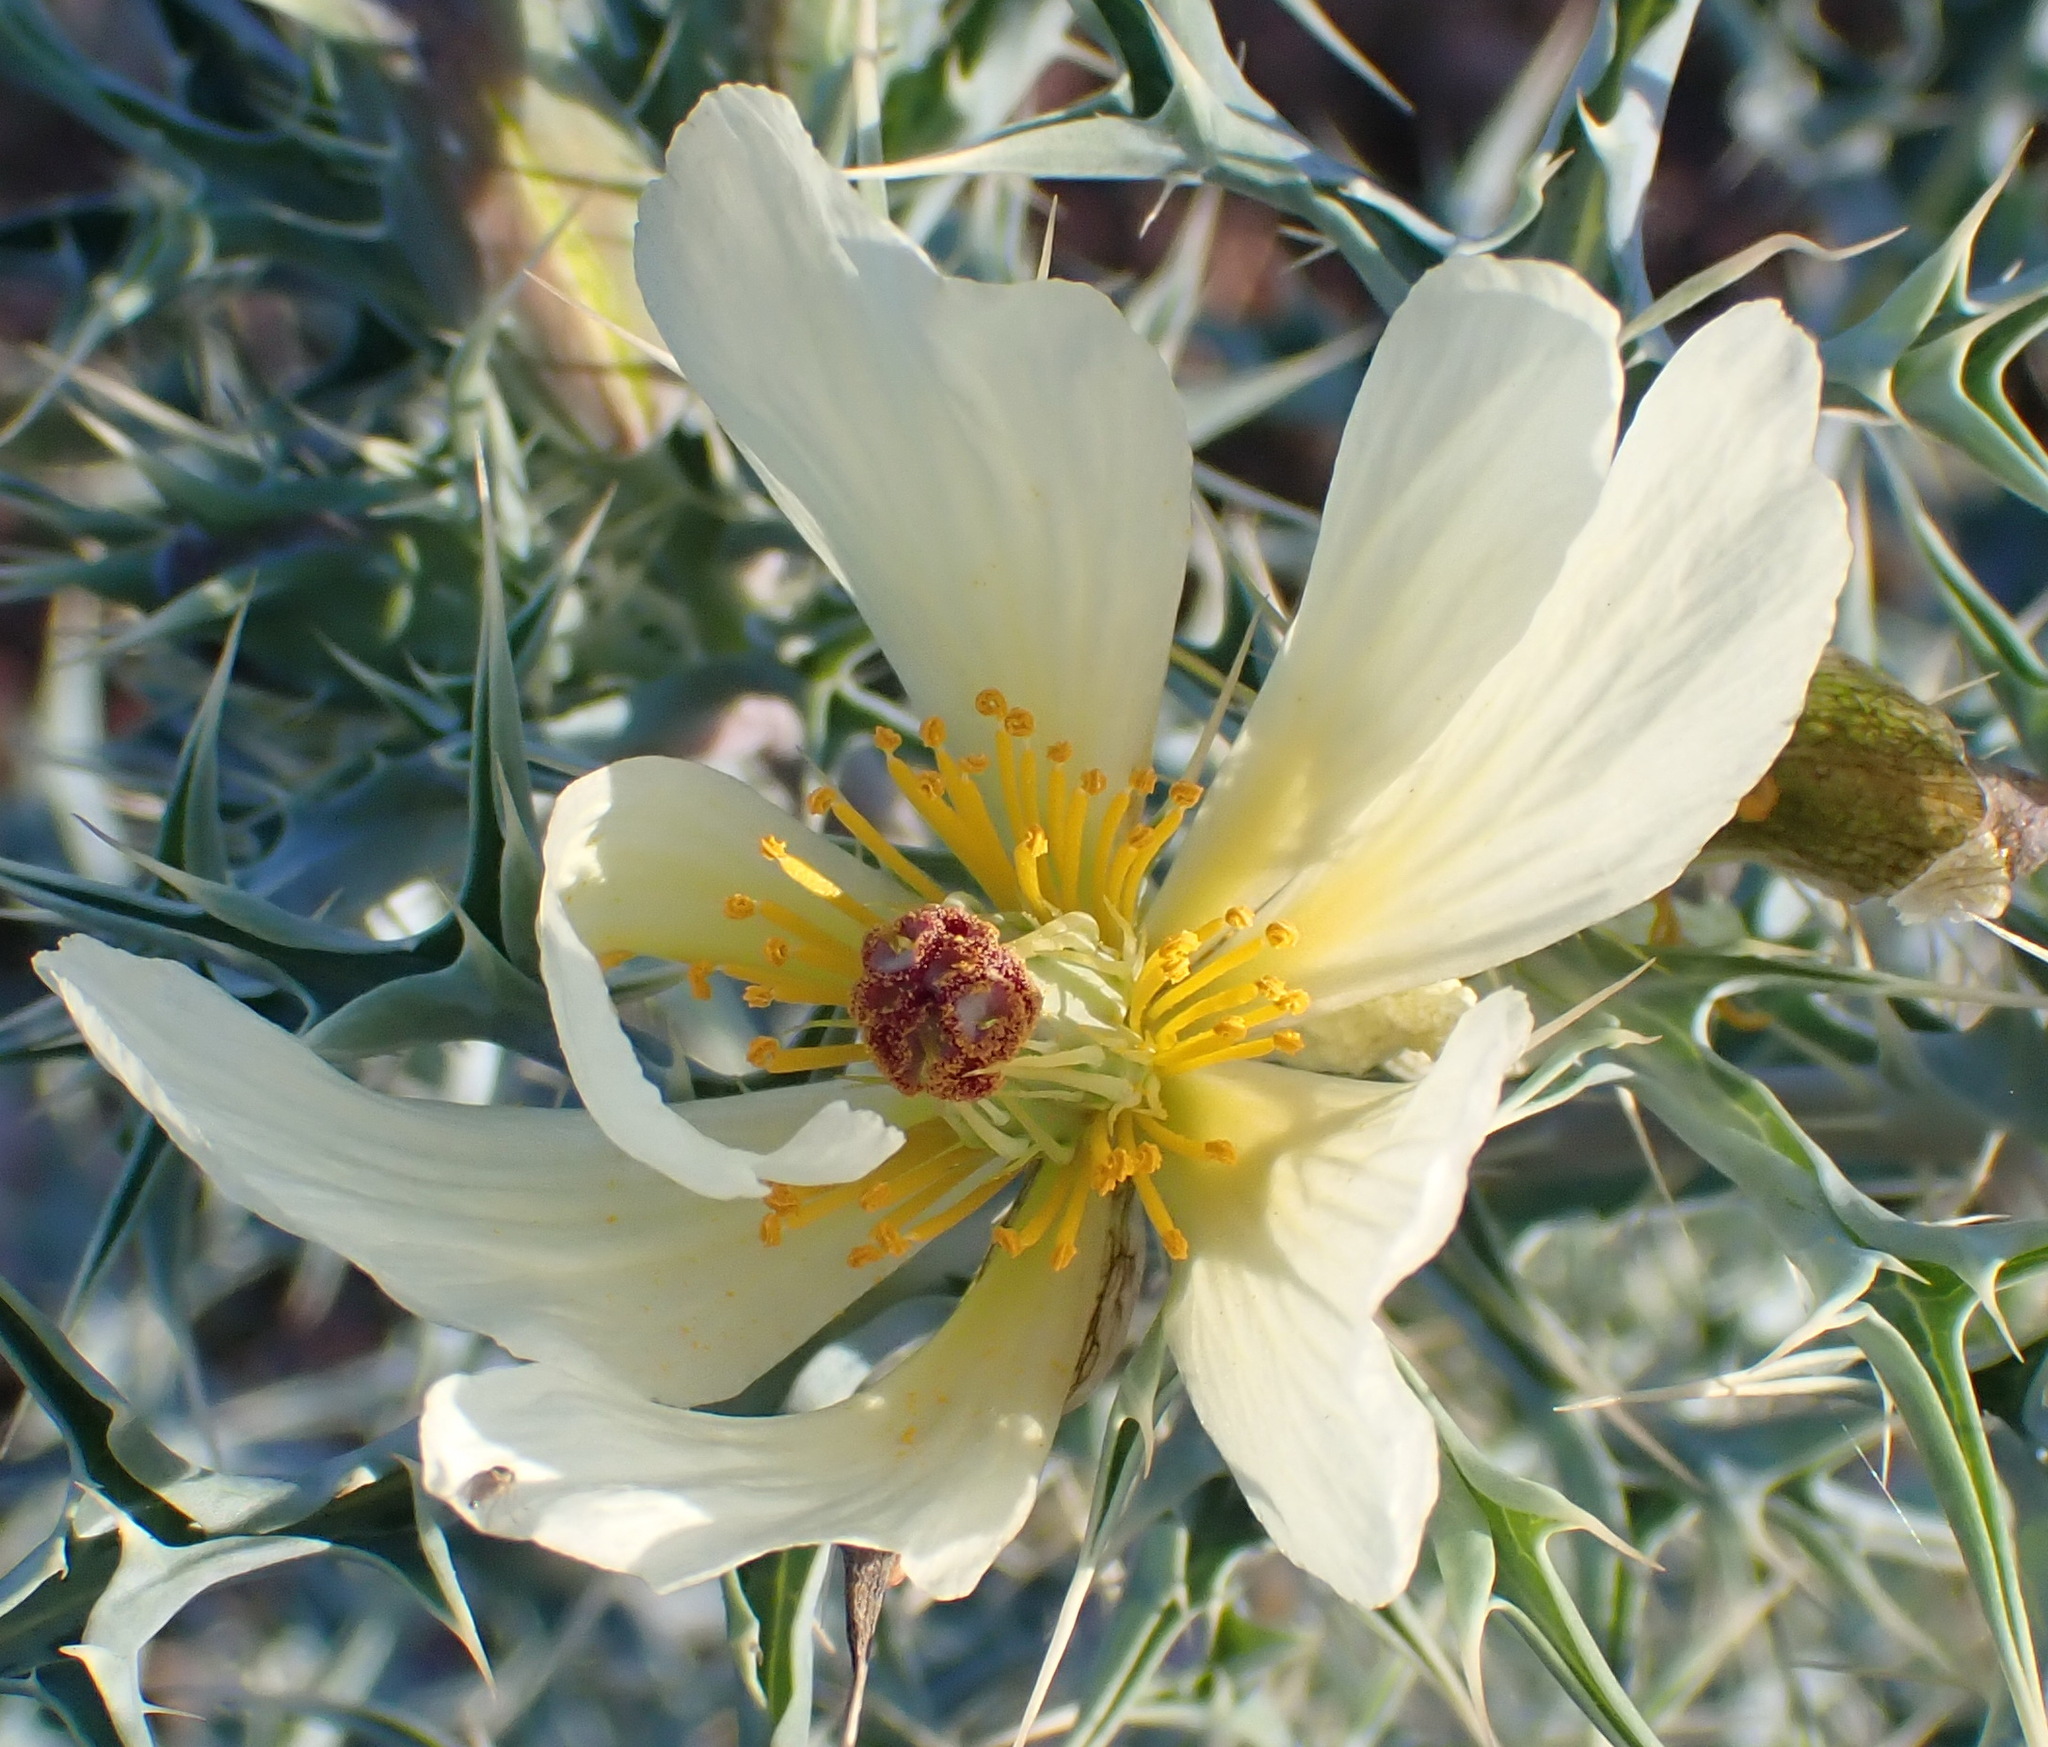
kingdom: Plantae
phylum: Tracheophyta
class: Magnoliopsida
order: Ranunculales
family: Papaveraceae
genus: Argemone
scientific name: Argemone ochroleuca
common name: White-flower mexican-poppy
